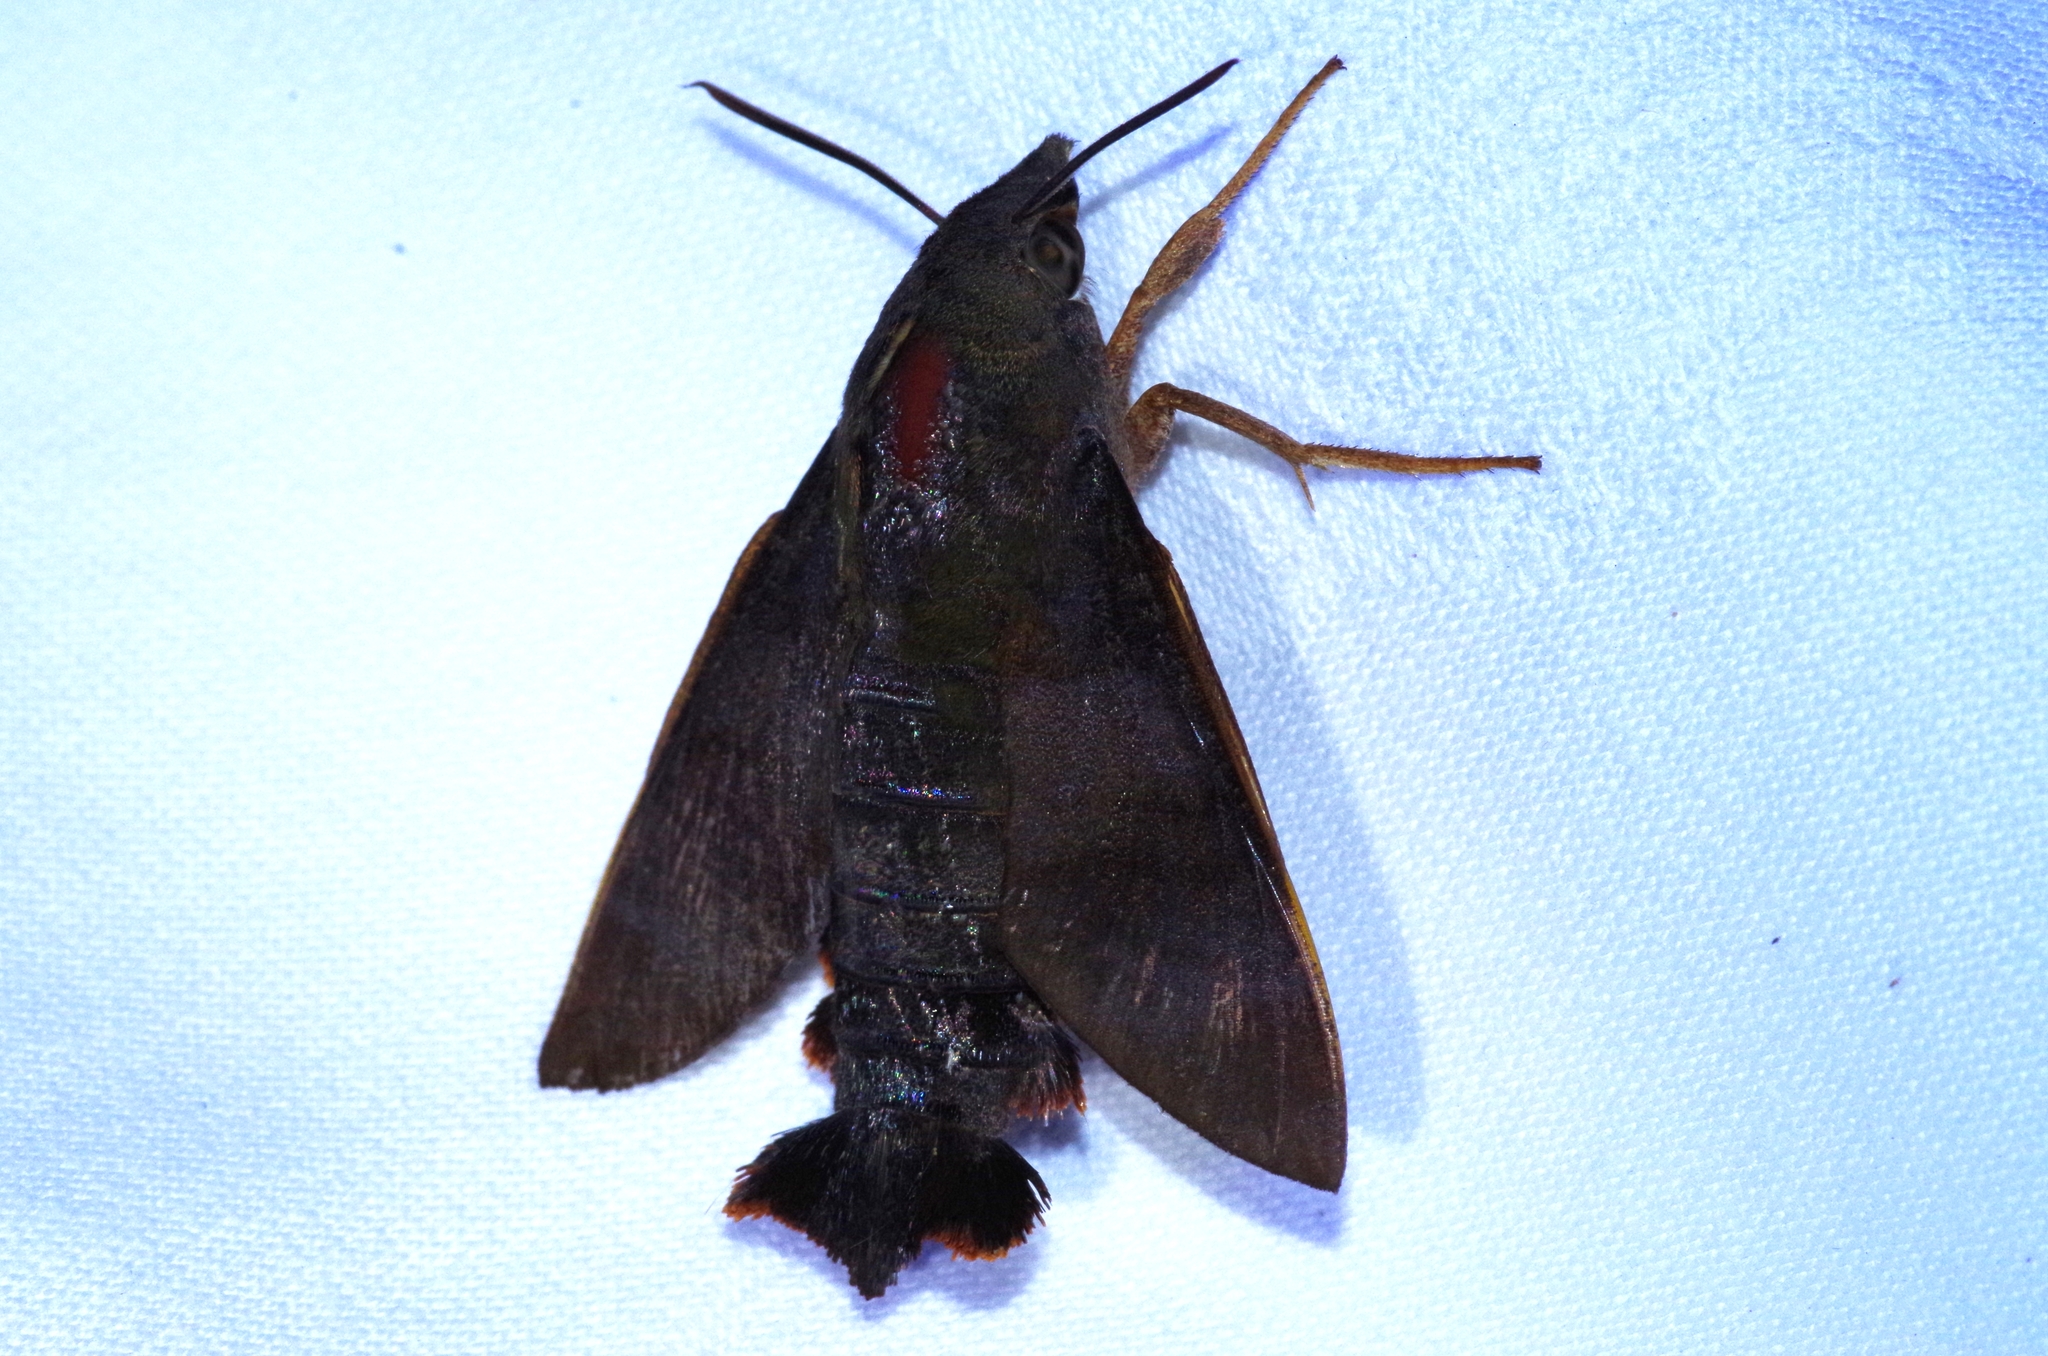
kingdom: Animalia
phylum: Arthropoda
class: Insecta
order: Lepidoptera
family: Sphingidae
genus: Macroglossum
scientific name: Macroglossum corythus
